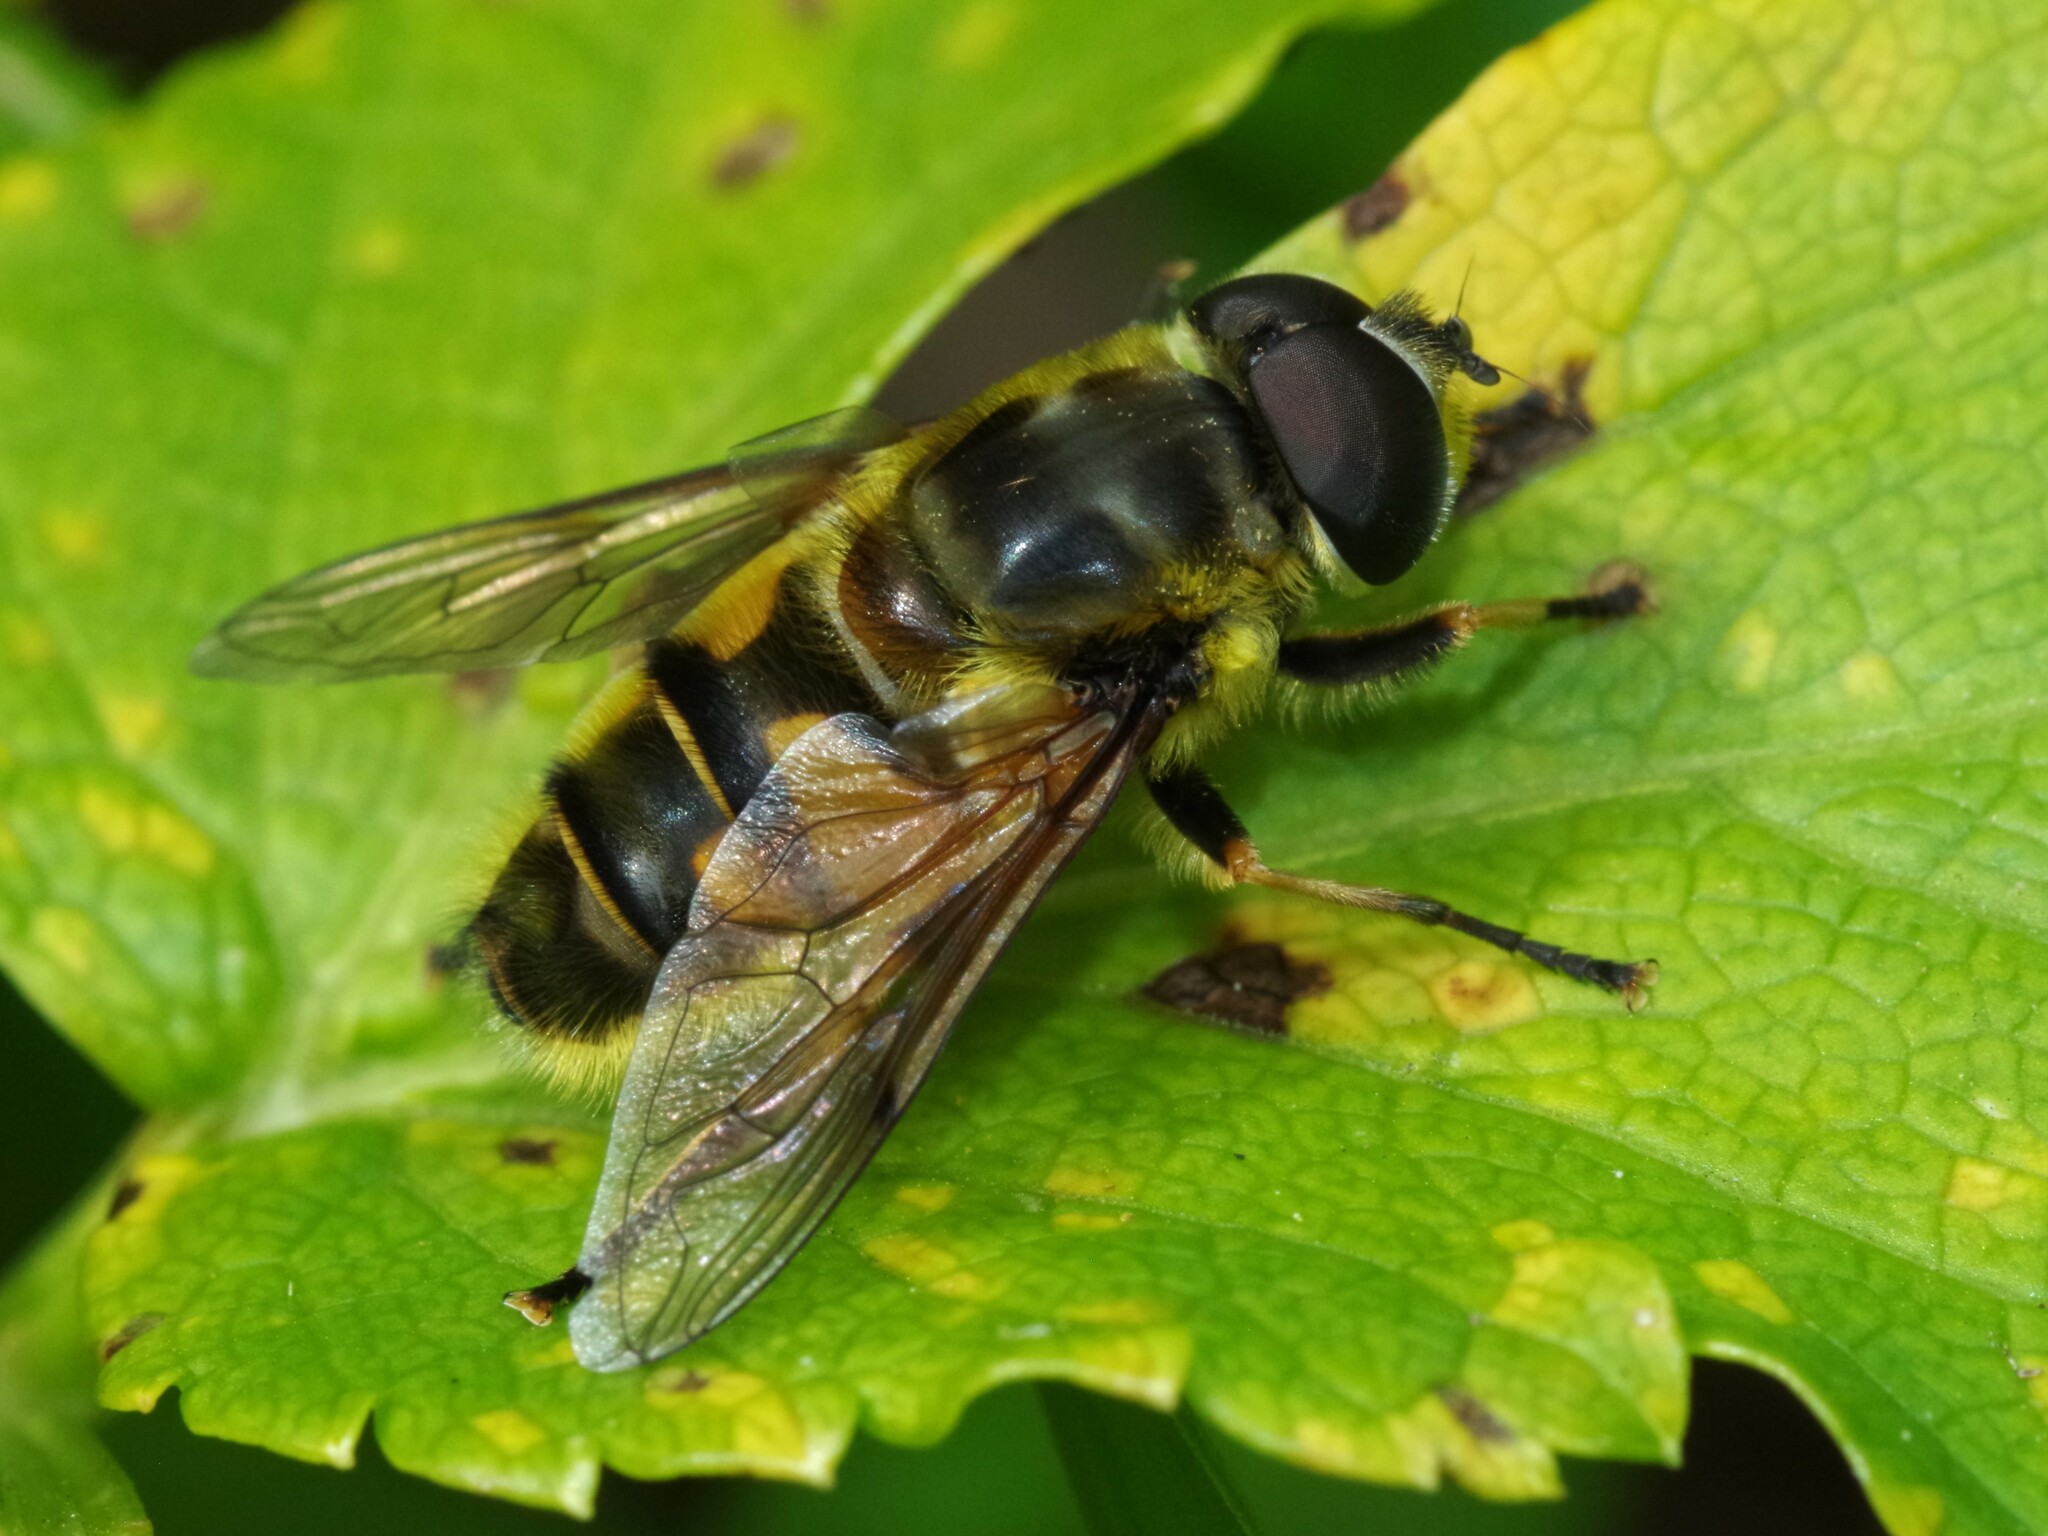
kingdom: Animalia
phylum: Arthropoda
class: Insecta
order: Diptera
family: Syrphidae
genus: Myathropa
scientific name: Myathropa florea
